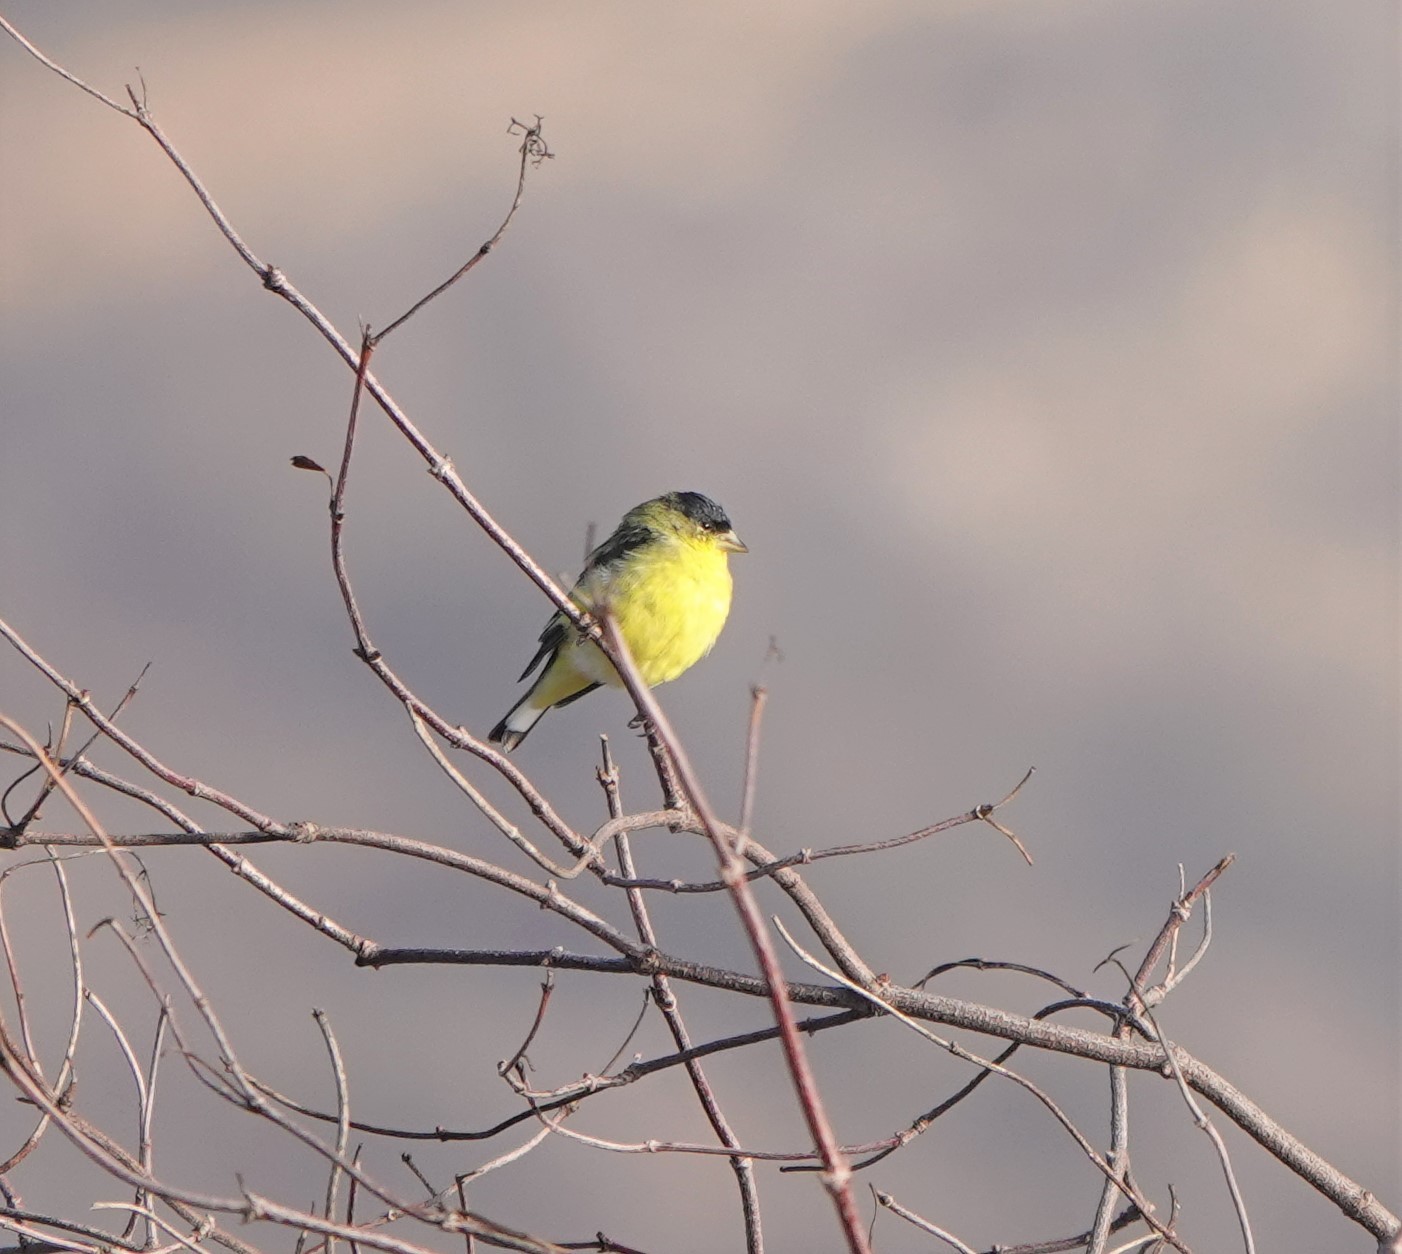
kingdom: Animalia
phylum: Chordata
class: Aves
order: Passeriformes
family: Fringillidae
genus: Spinus
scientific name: Spinus psaltria
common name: Lesser goldfinch
